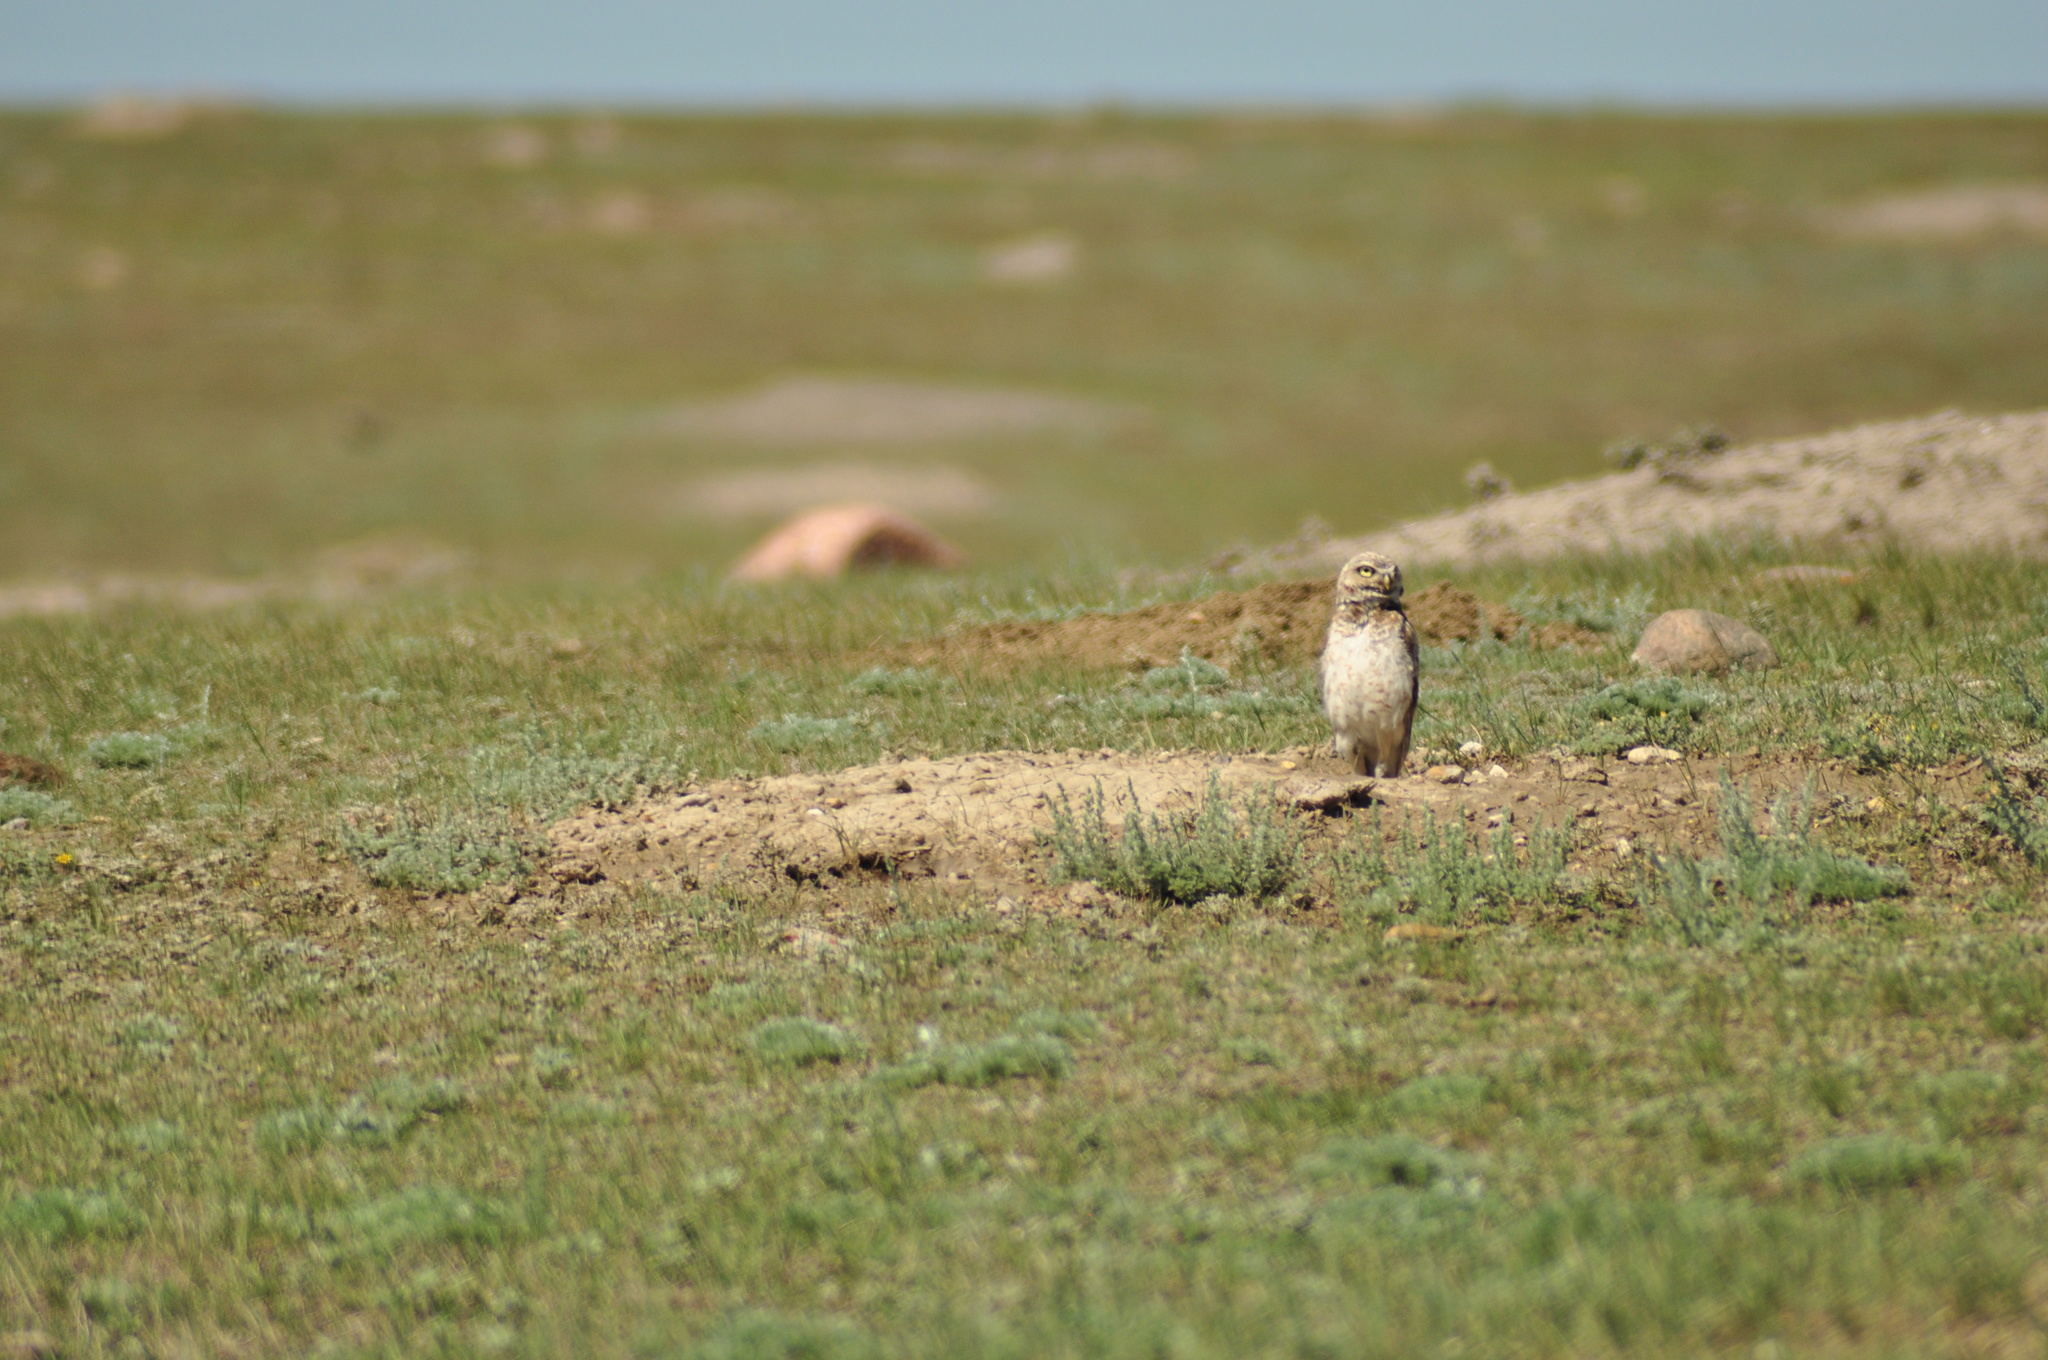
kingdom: Animalia
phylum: Chordata
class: Aves
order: Strigiformes
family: Strigidae
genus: Athene
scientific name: Athene cunicularia
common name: Burrowing owl
